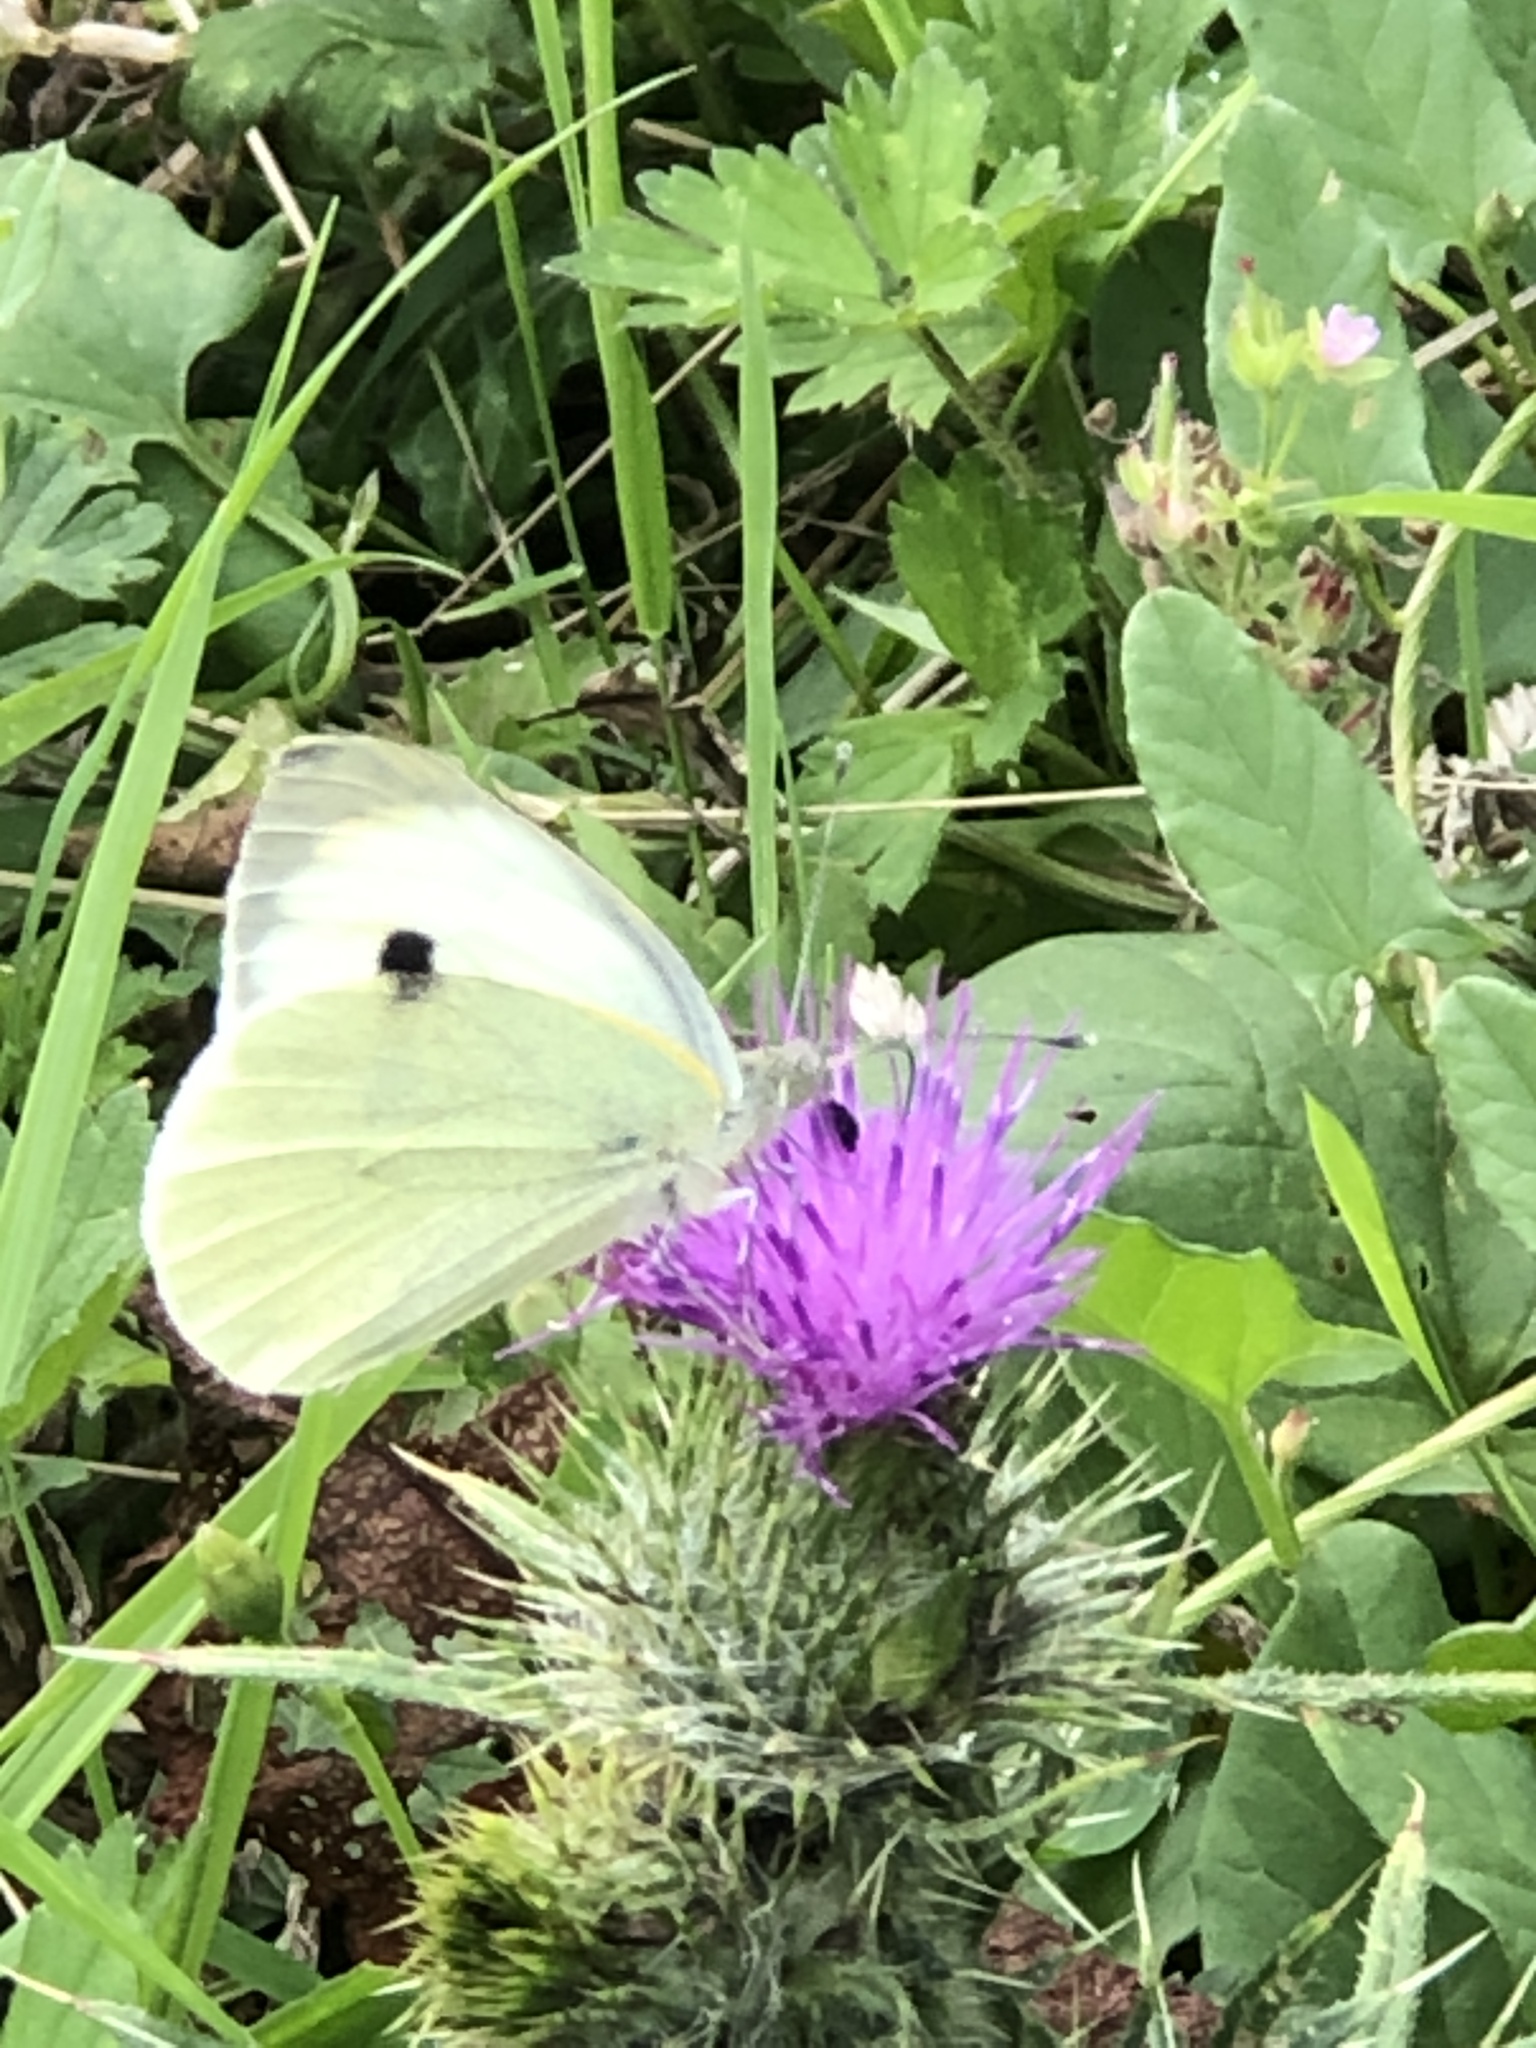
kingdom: Animalia
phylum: Arthropoda
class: Insecta
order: Lepidoptera
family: Pieridae
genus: Pieris
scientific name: Pieris brassicae
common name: Large white
